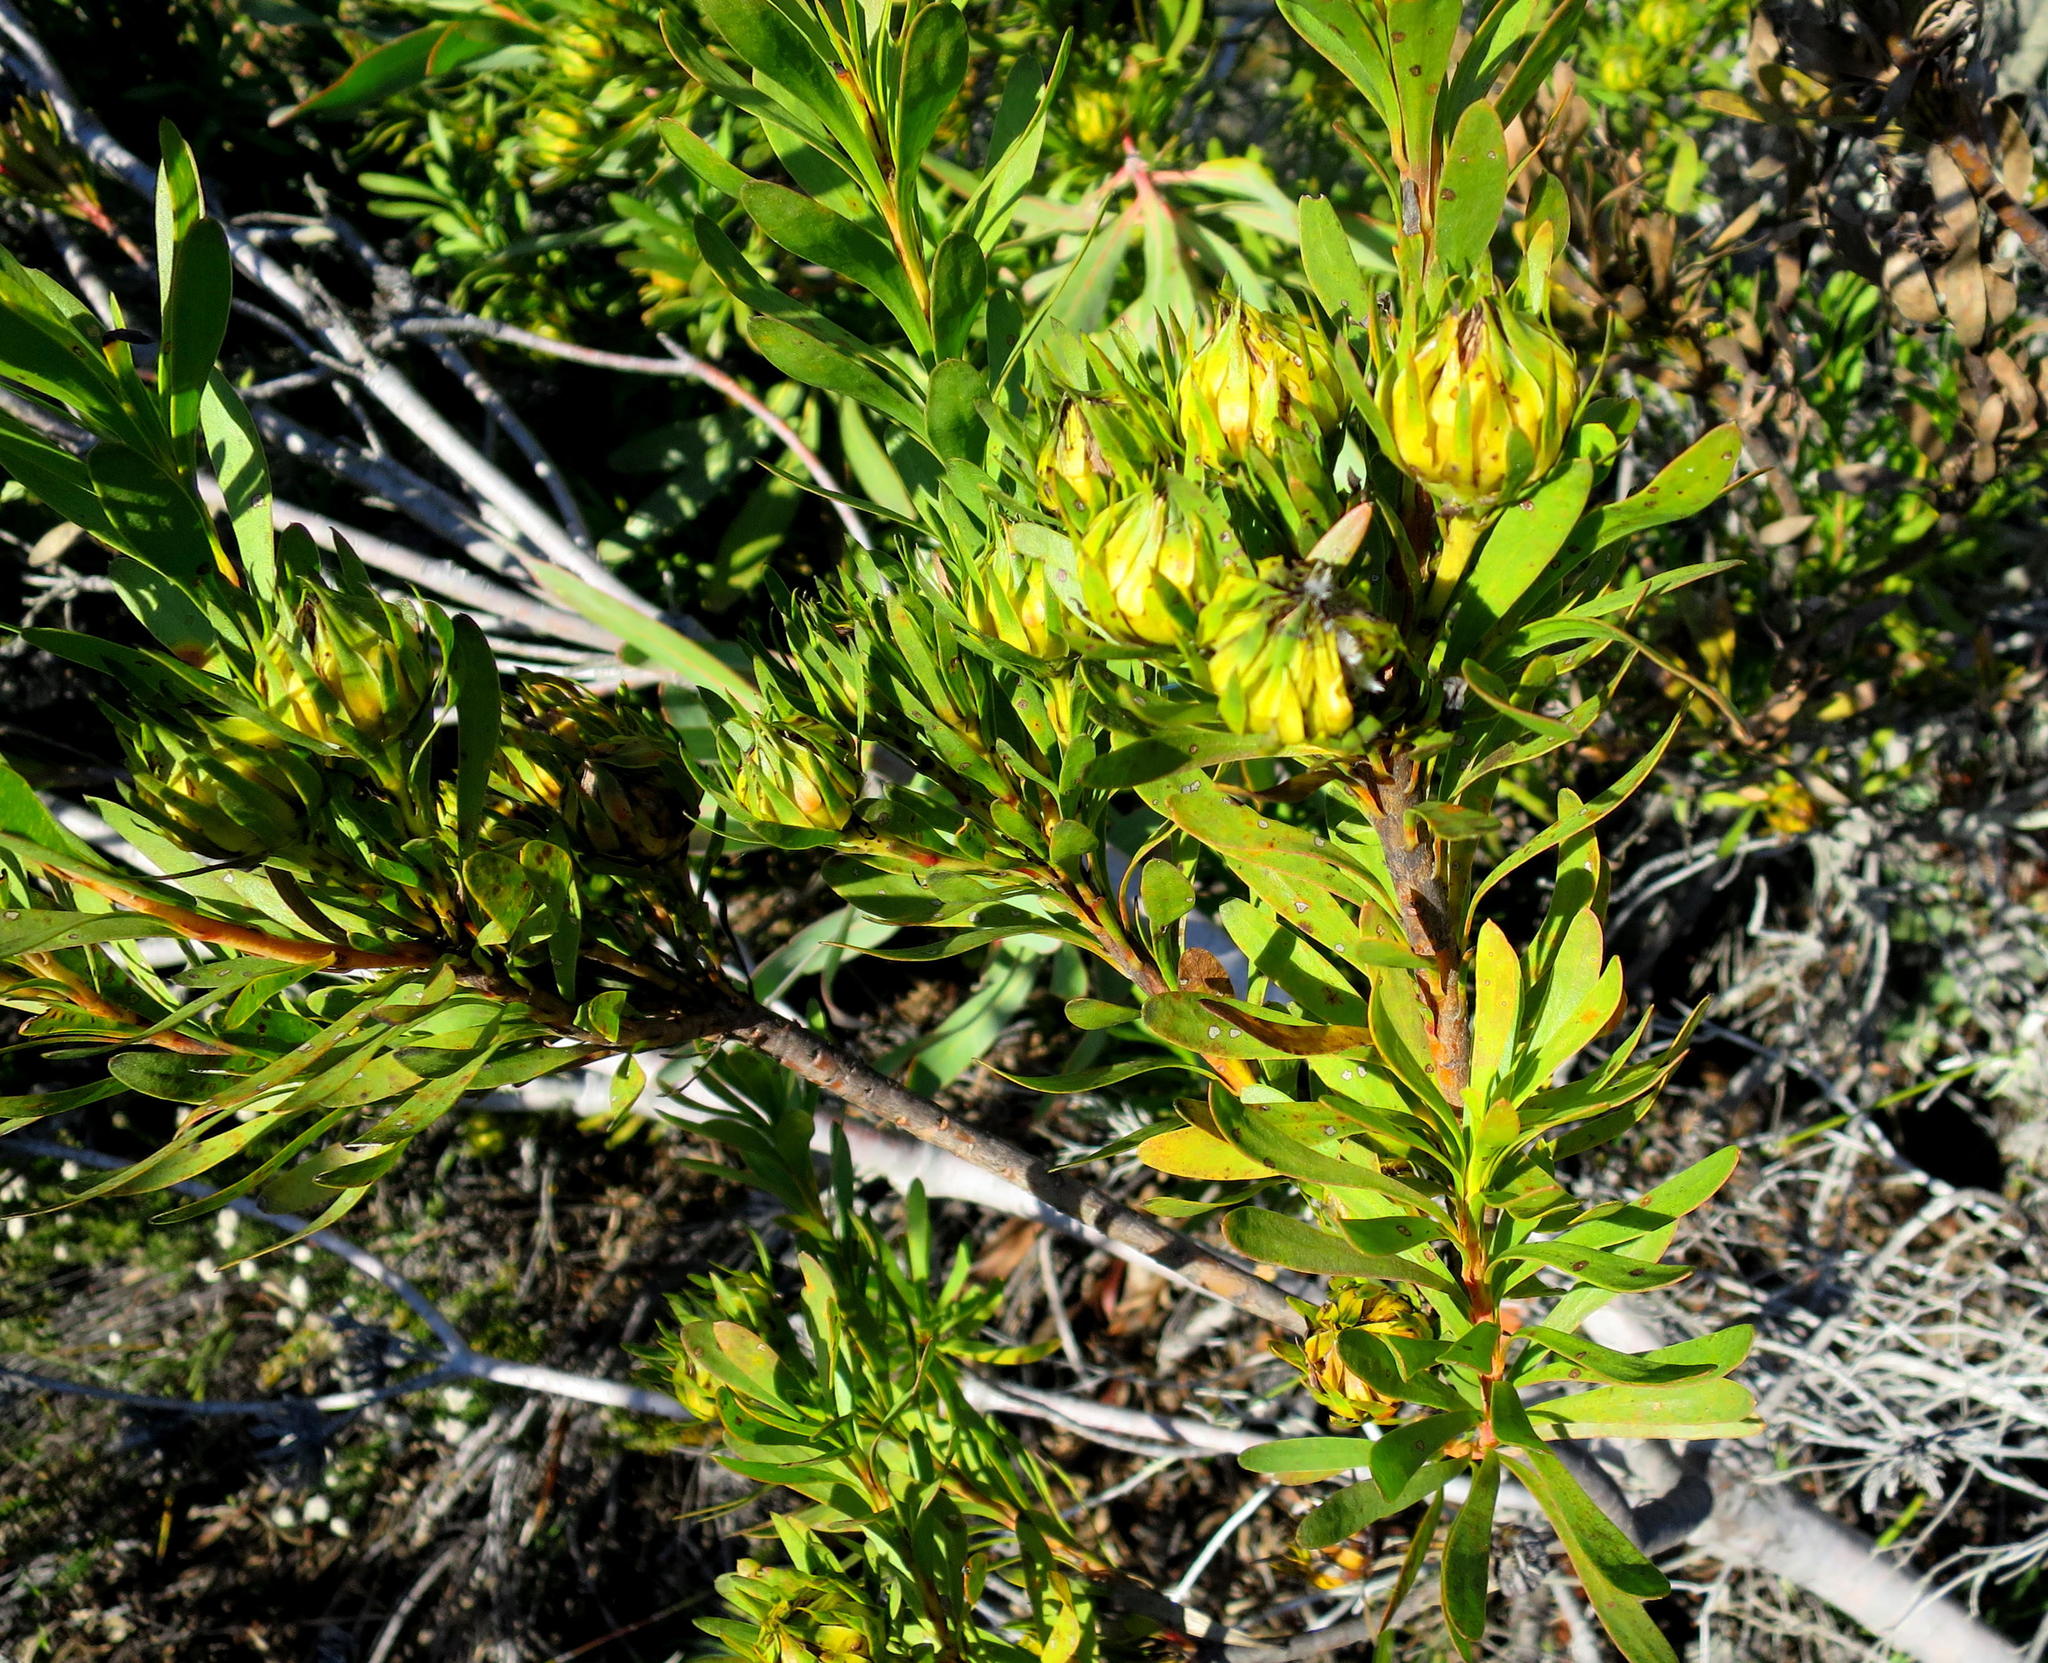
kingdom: Plantae
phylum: Tracheophyta
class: Magnoliopsida
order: Proteales
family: Proteaceae
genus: Aulax
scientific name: Aulax umbellata
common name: Broad-leaf featherbush
